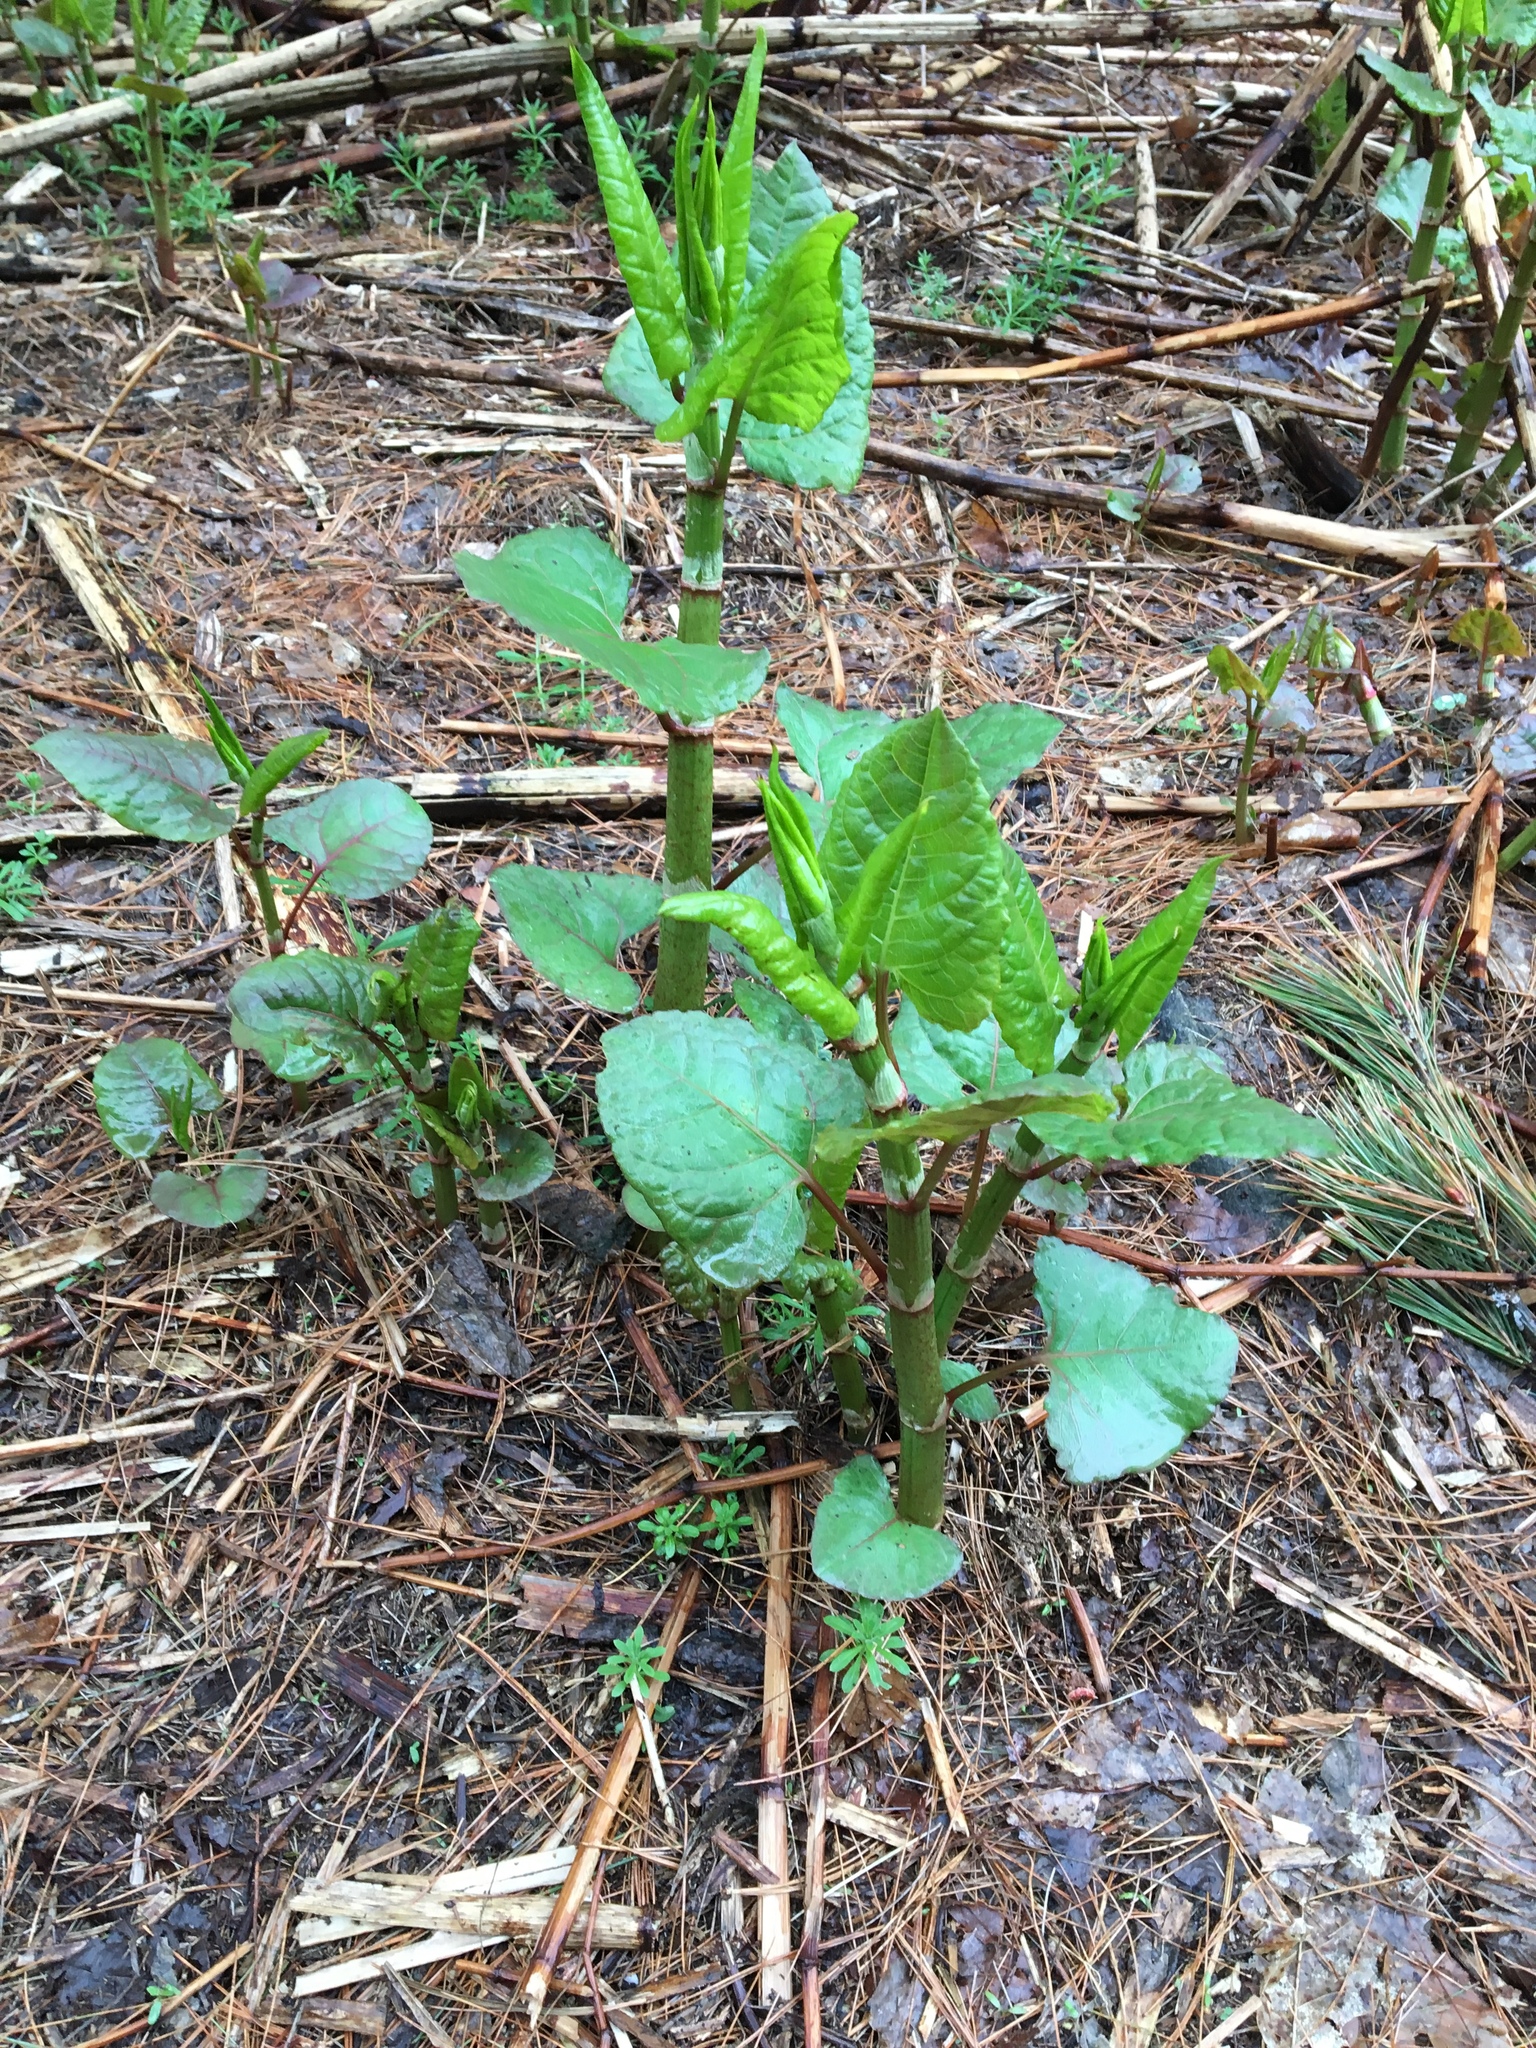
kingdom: Plantae
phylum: Tracheophyta
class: Magnoliopsida
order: Caryophyllales
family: Polygonaceae
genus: Reynoutria
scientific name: Reynoutria japonica
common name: Japanese knotweed
